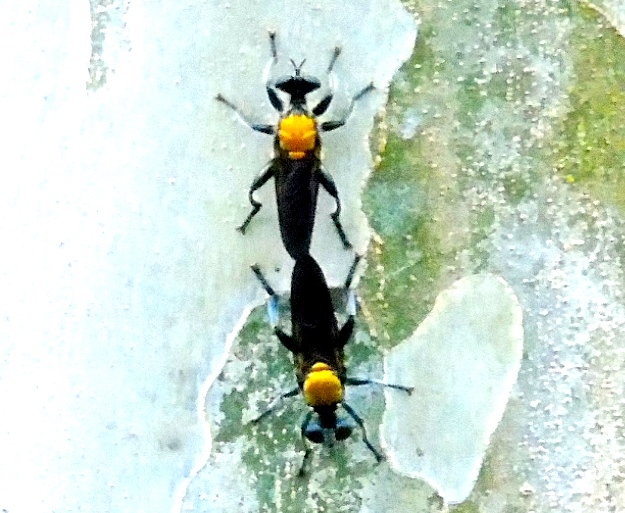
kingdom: Animalia
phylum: Arthropoda
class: Insecta
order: Diptera
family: Asilidae
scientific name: Asilidae
